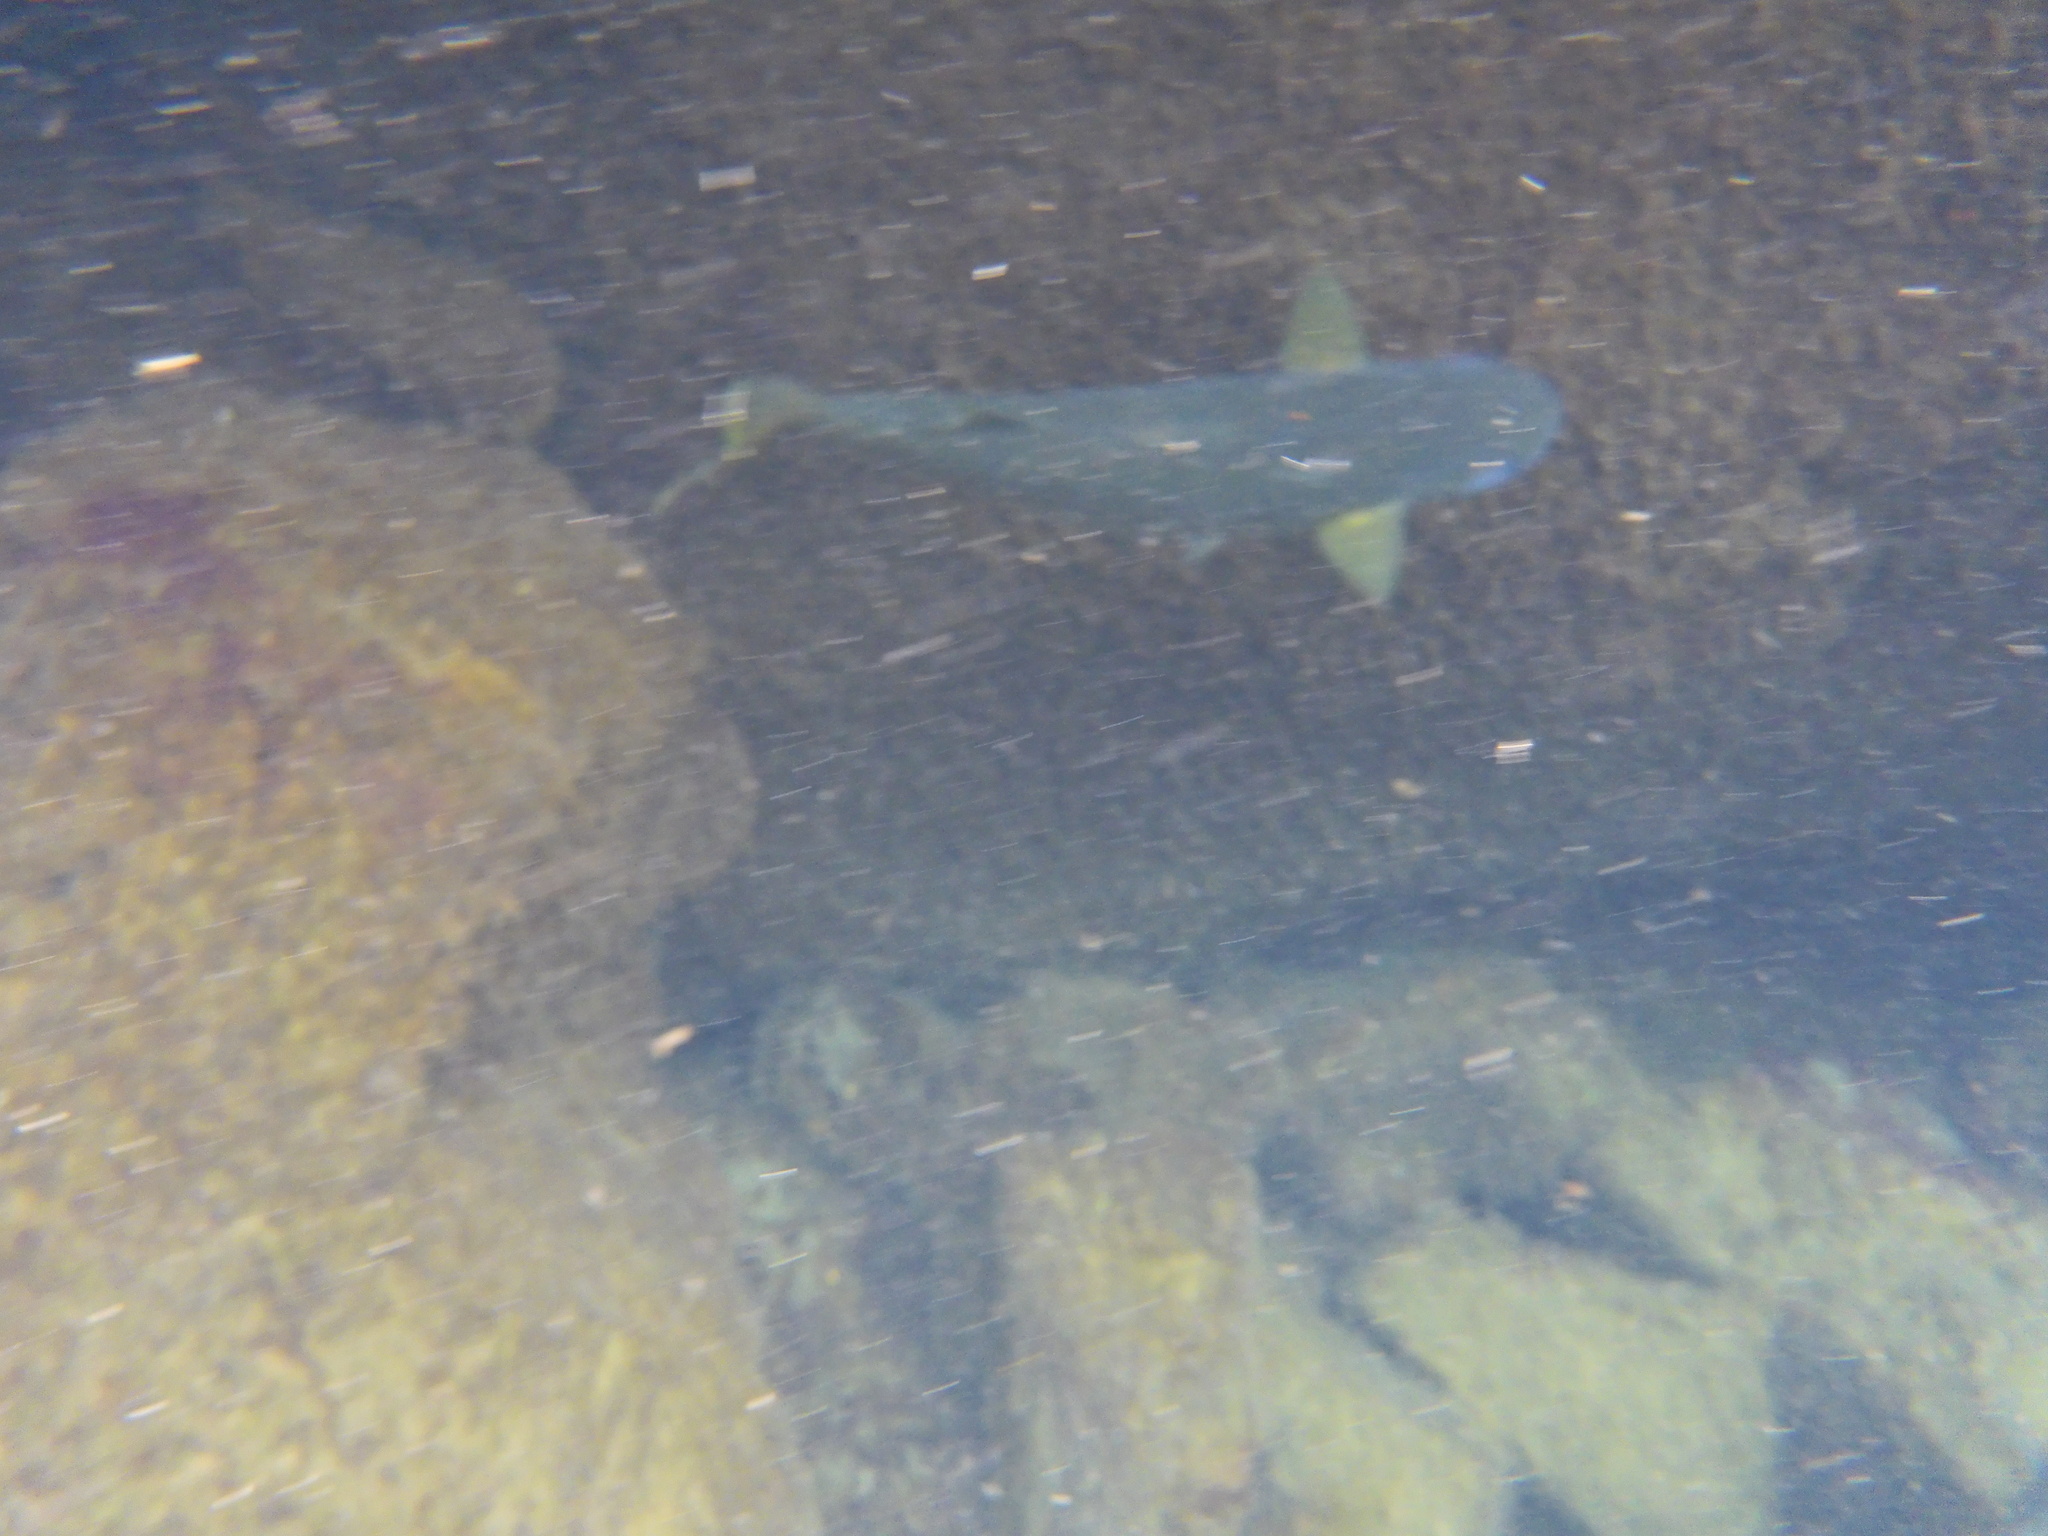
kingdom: Animalia
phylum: Chordata
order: Mugiliformes
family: Mugilidae
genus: Mugil
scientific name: Mugil cephalus
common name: Grey mullet
